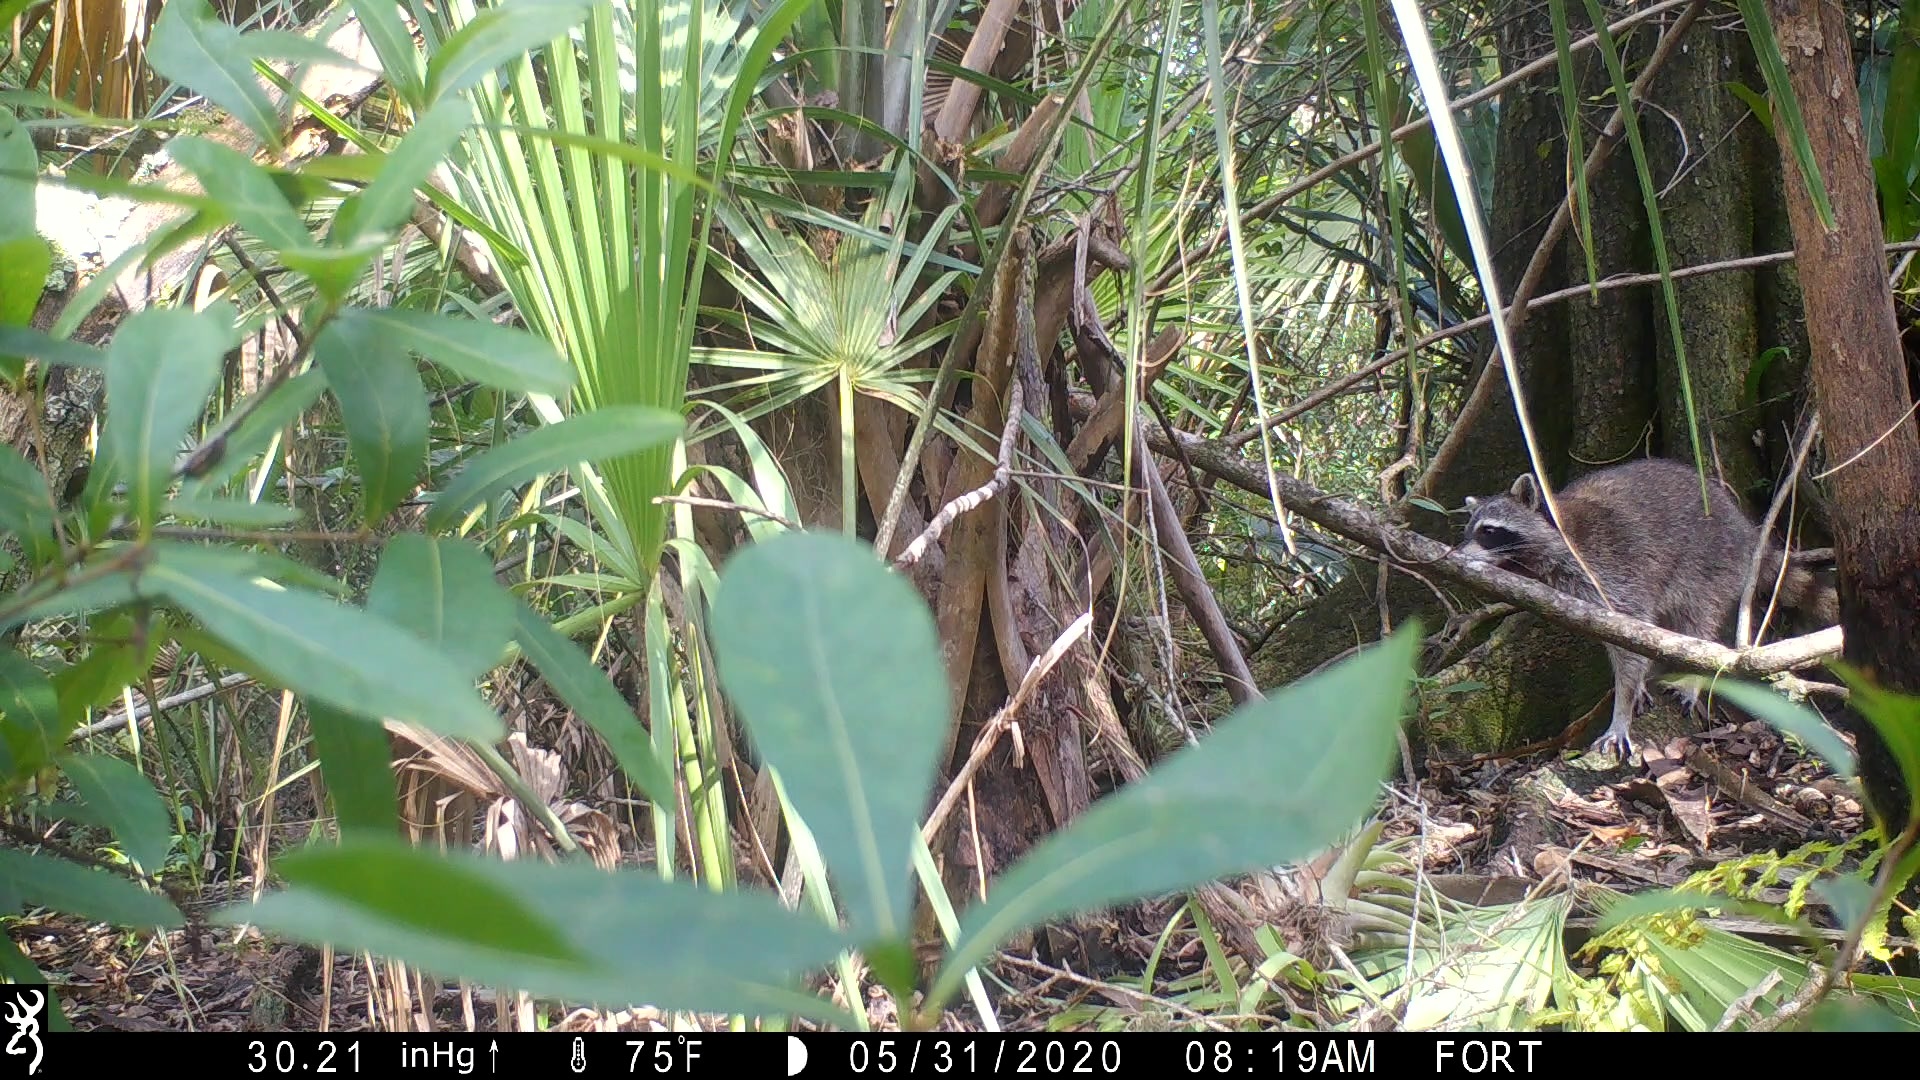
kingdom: Animalia
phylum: Chordata
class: Mammalia
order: Carnivora
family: Procyonidae
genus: Procyon
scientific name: Procyon lotor
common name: Raccoon
